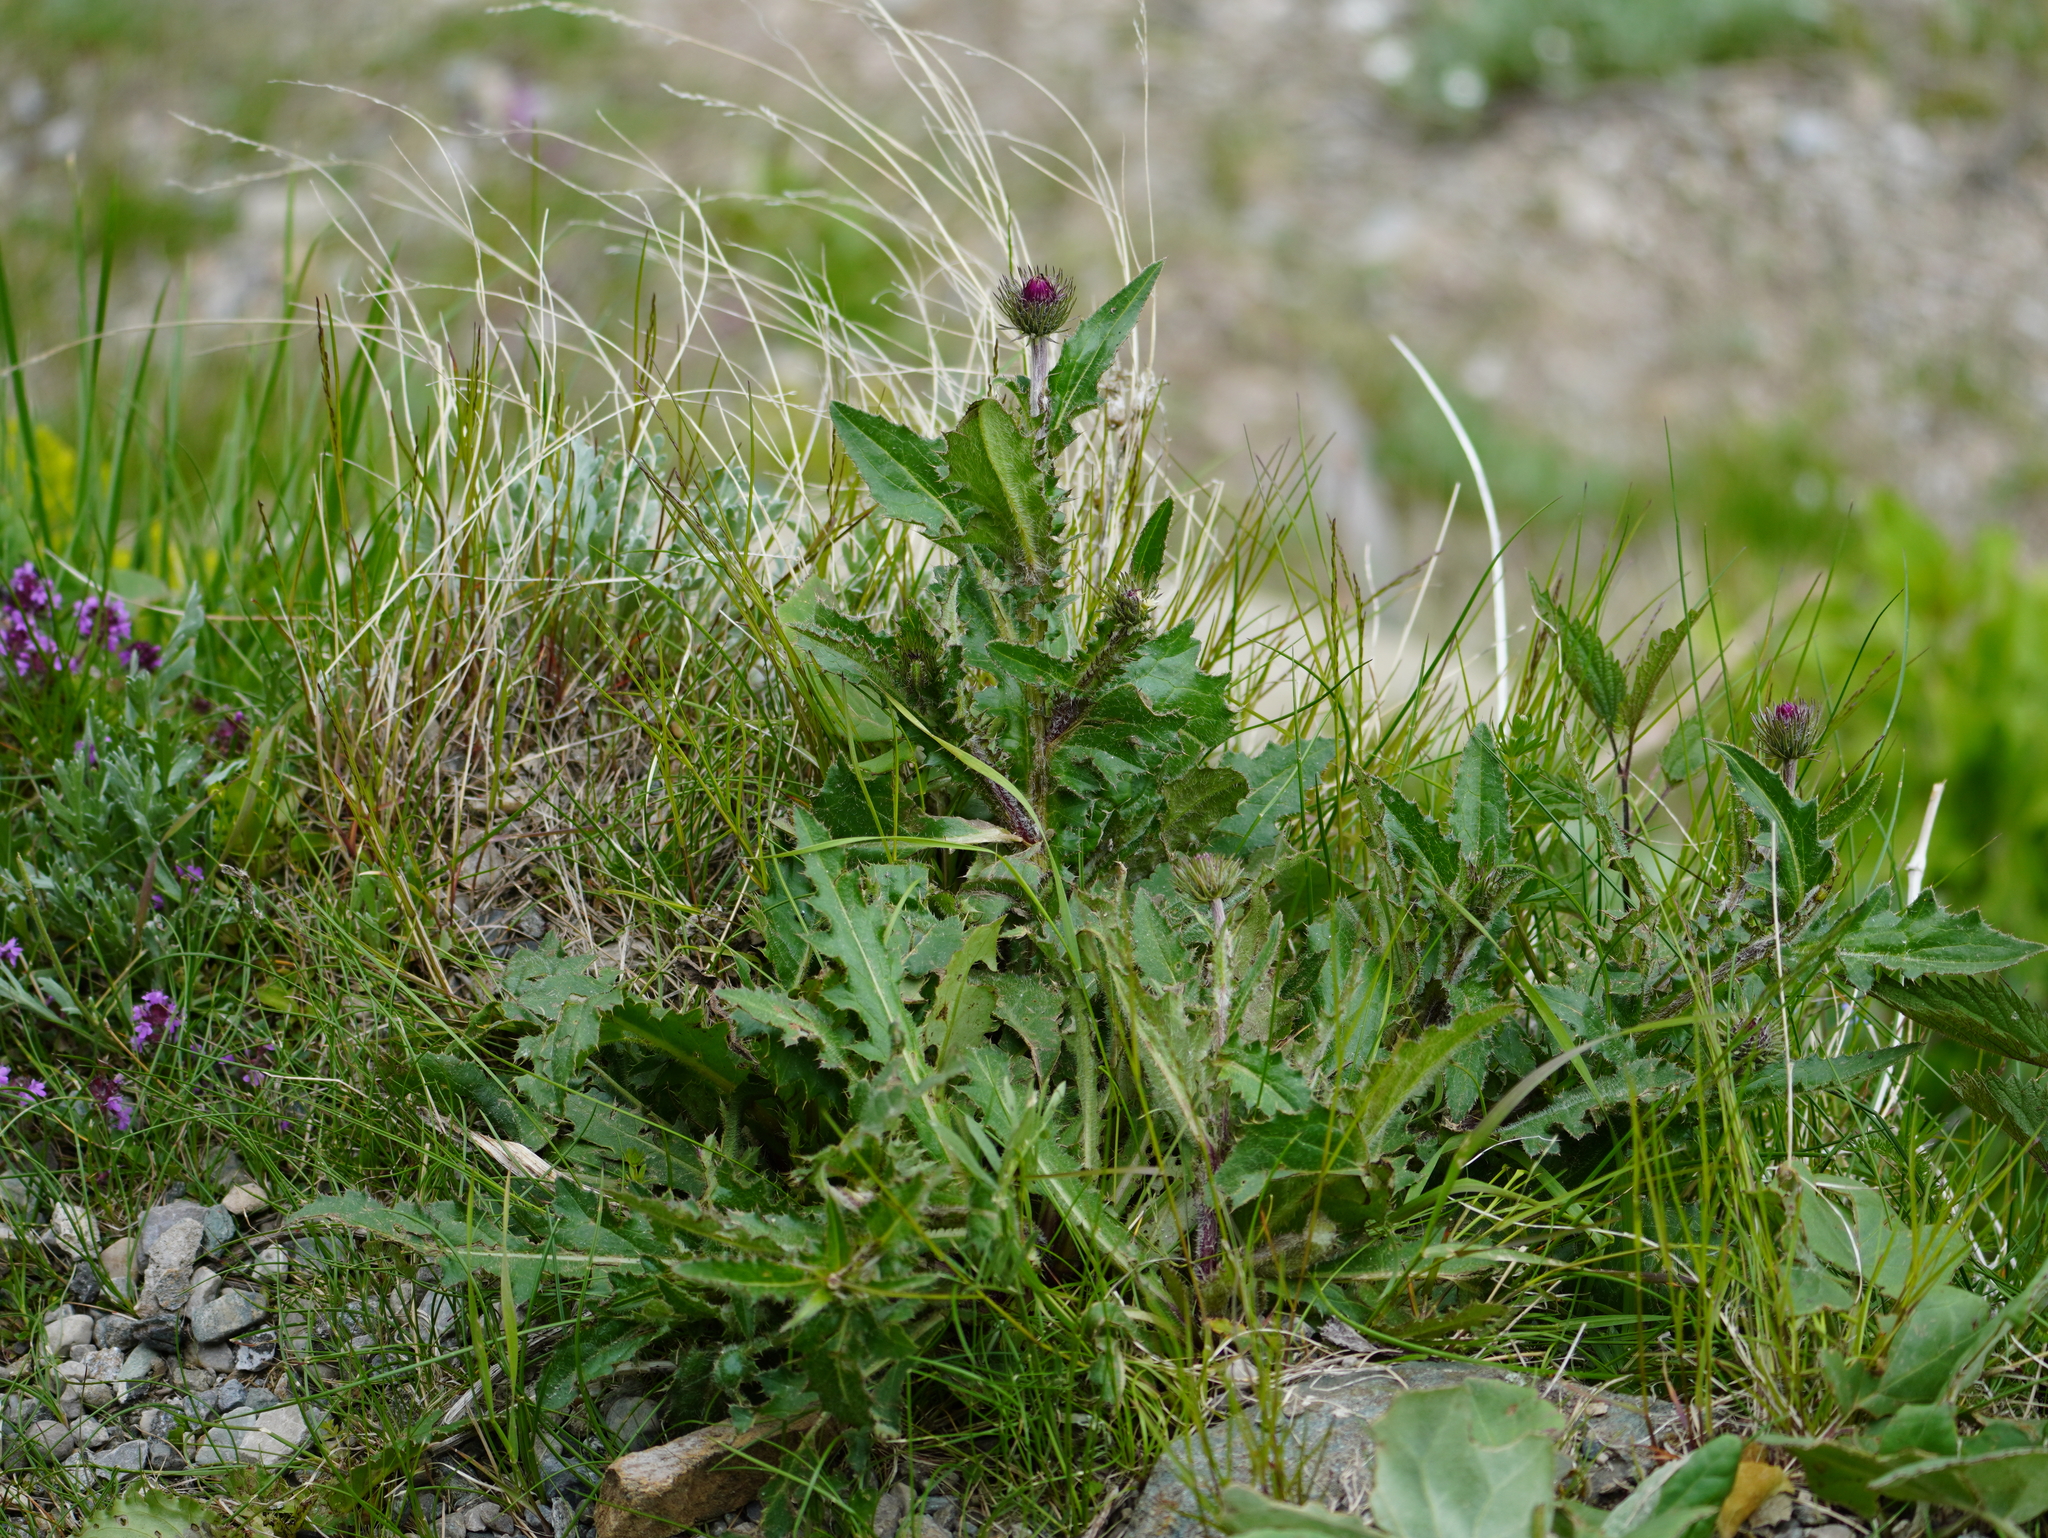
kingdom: Plantae
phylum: Tracheophyta
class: Magnoliopsida
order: Asterales
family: Asteraceae
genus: Carduus
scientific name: Carduus defloratus
